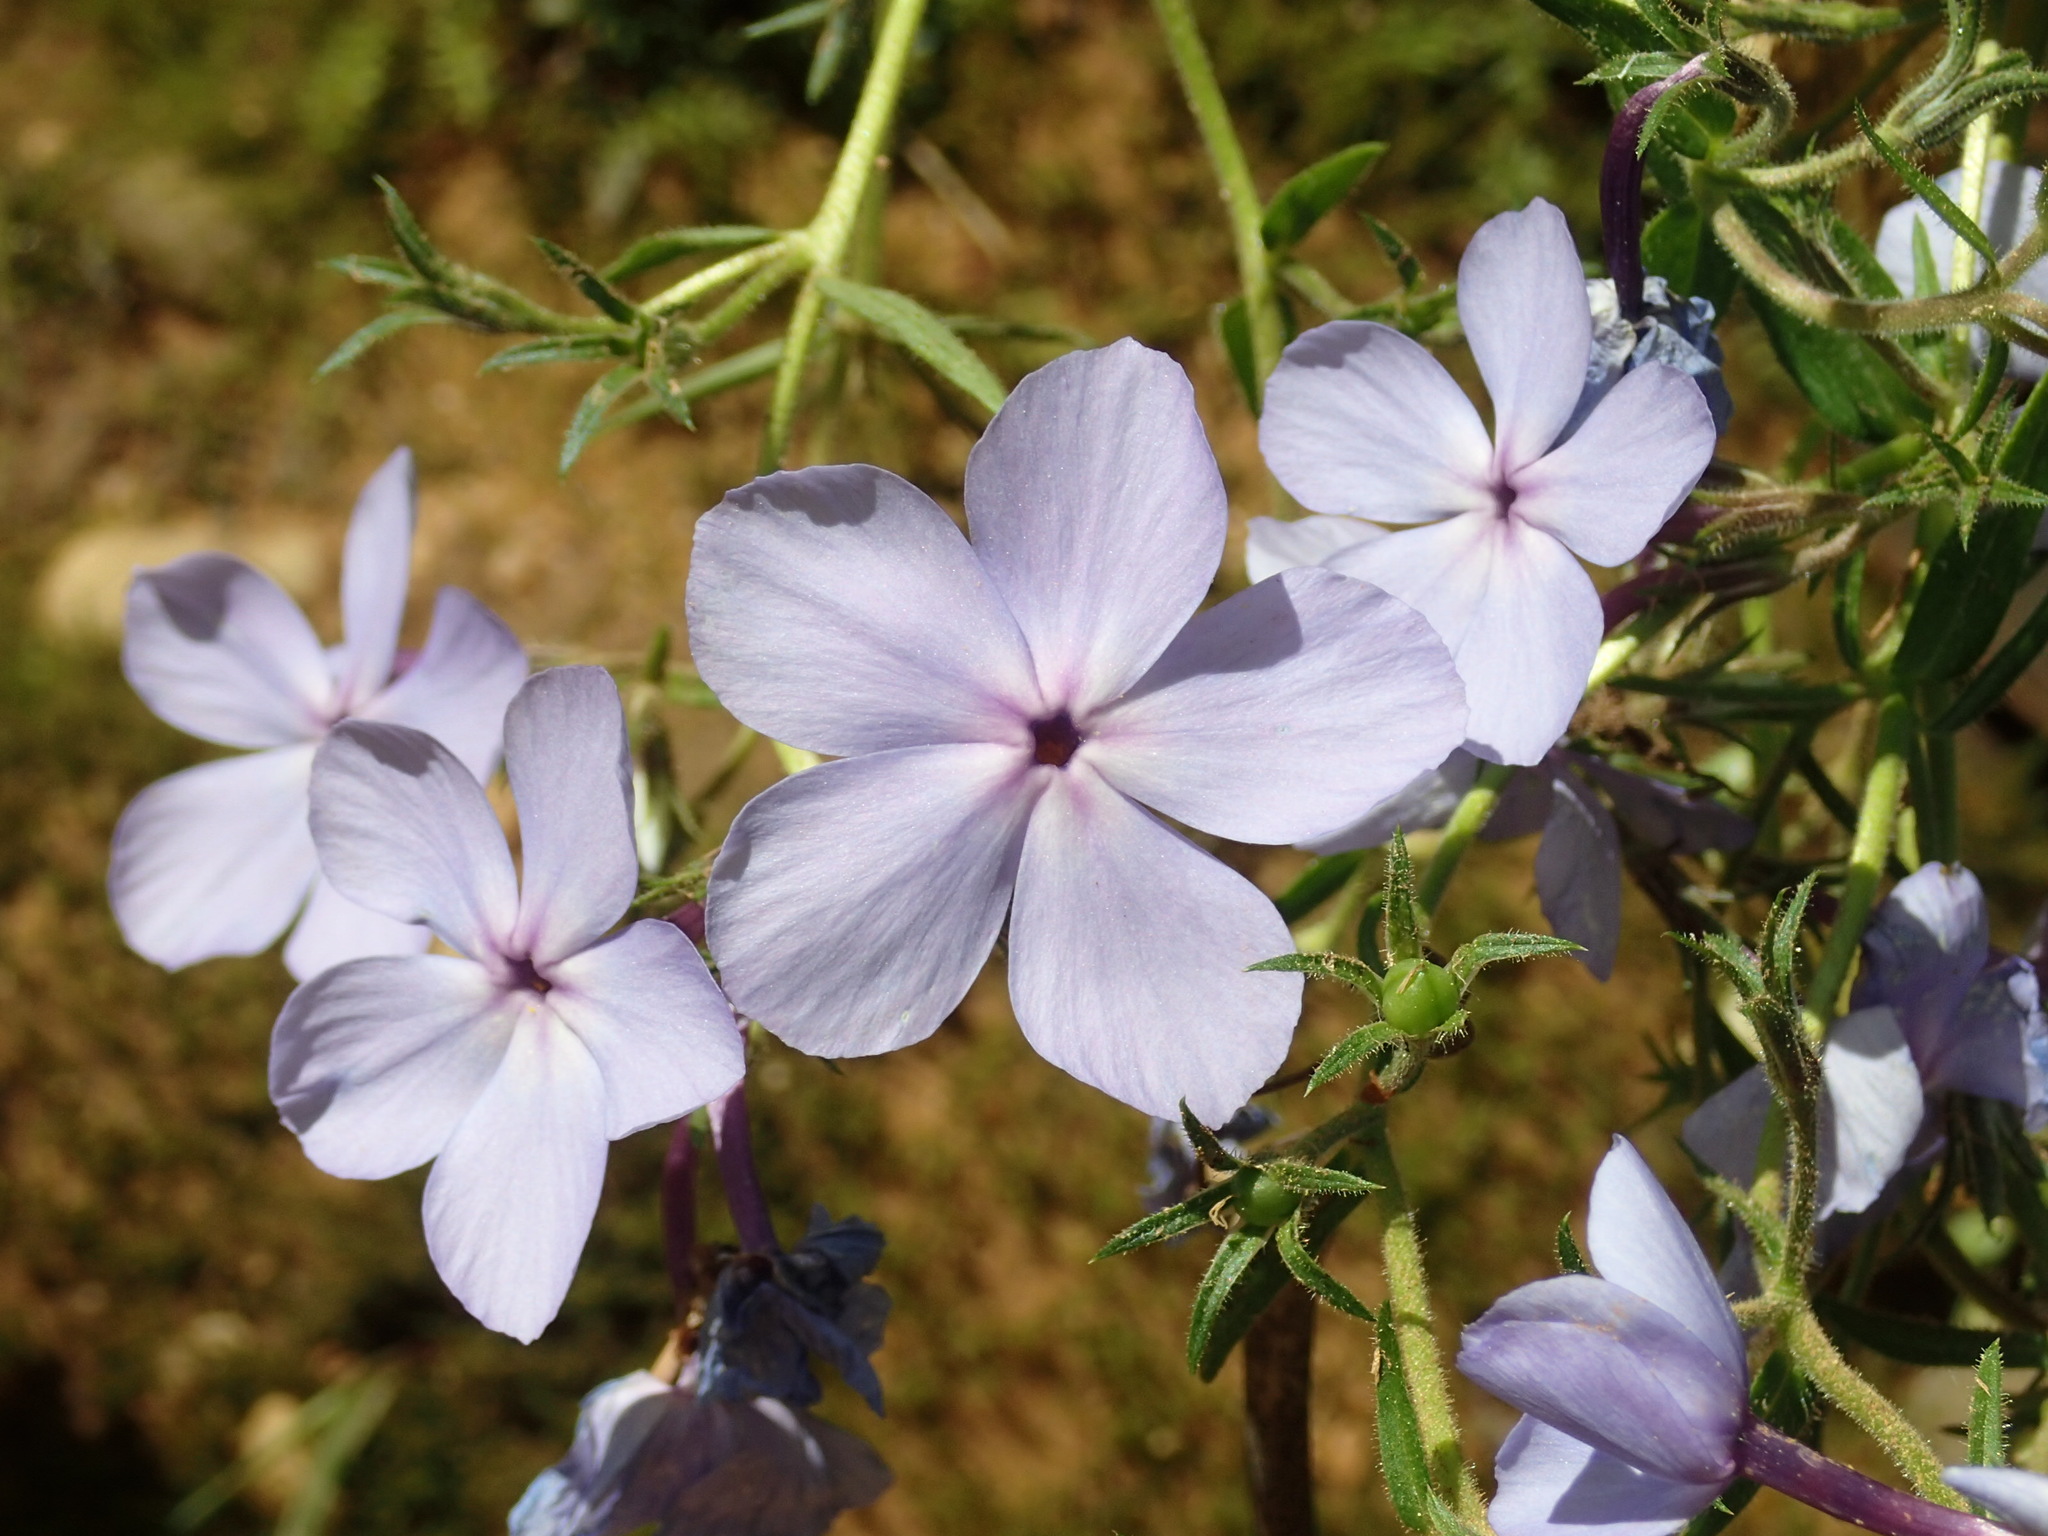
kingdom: Plantae
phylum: Tracheophyta
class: Magnoliopsida
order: Ericales
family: Polemoniaceae
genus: Phlox
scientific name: Phlox divaricata
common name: Blue phlox
